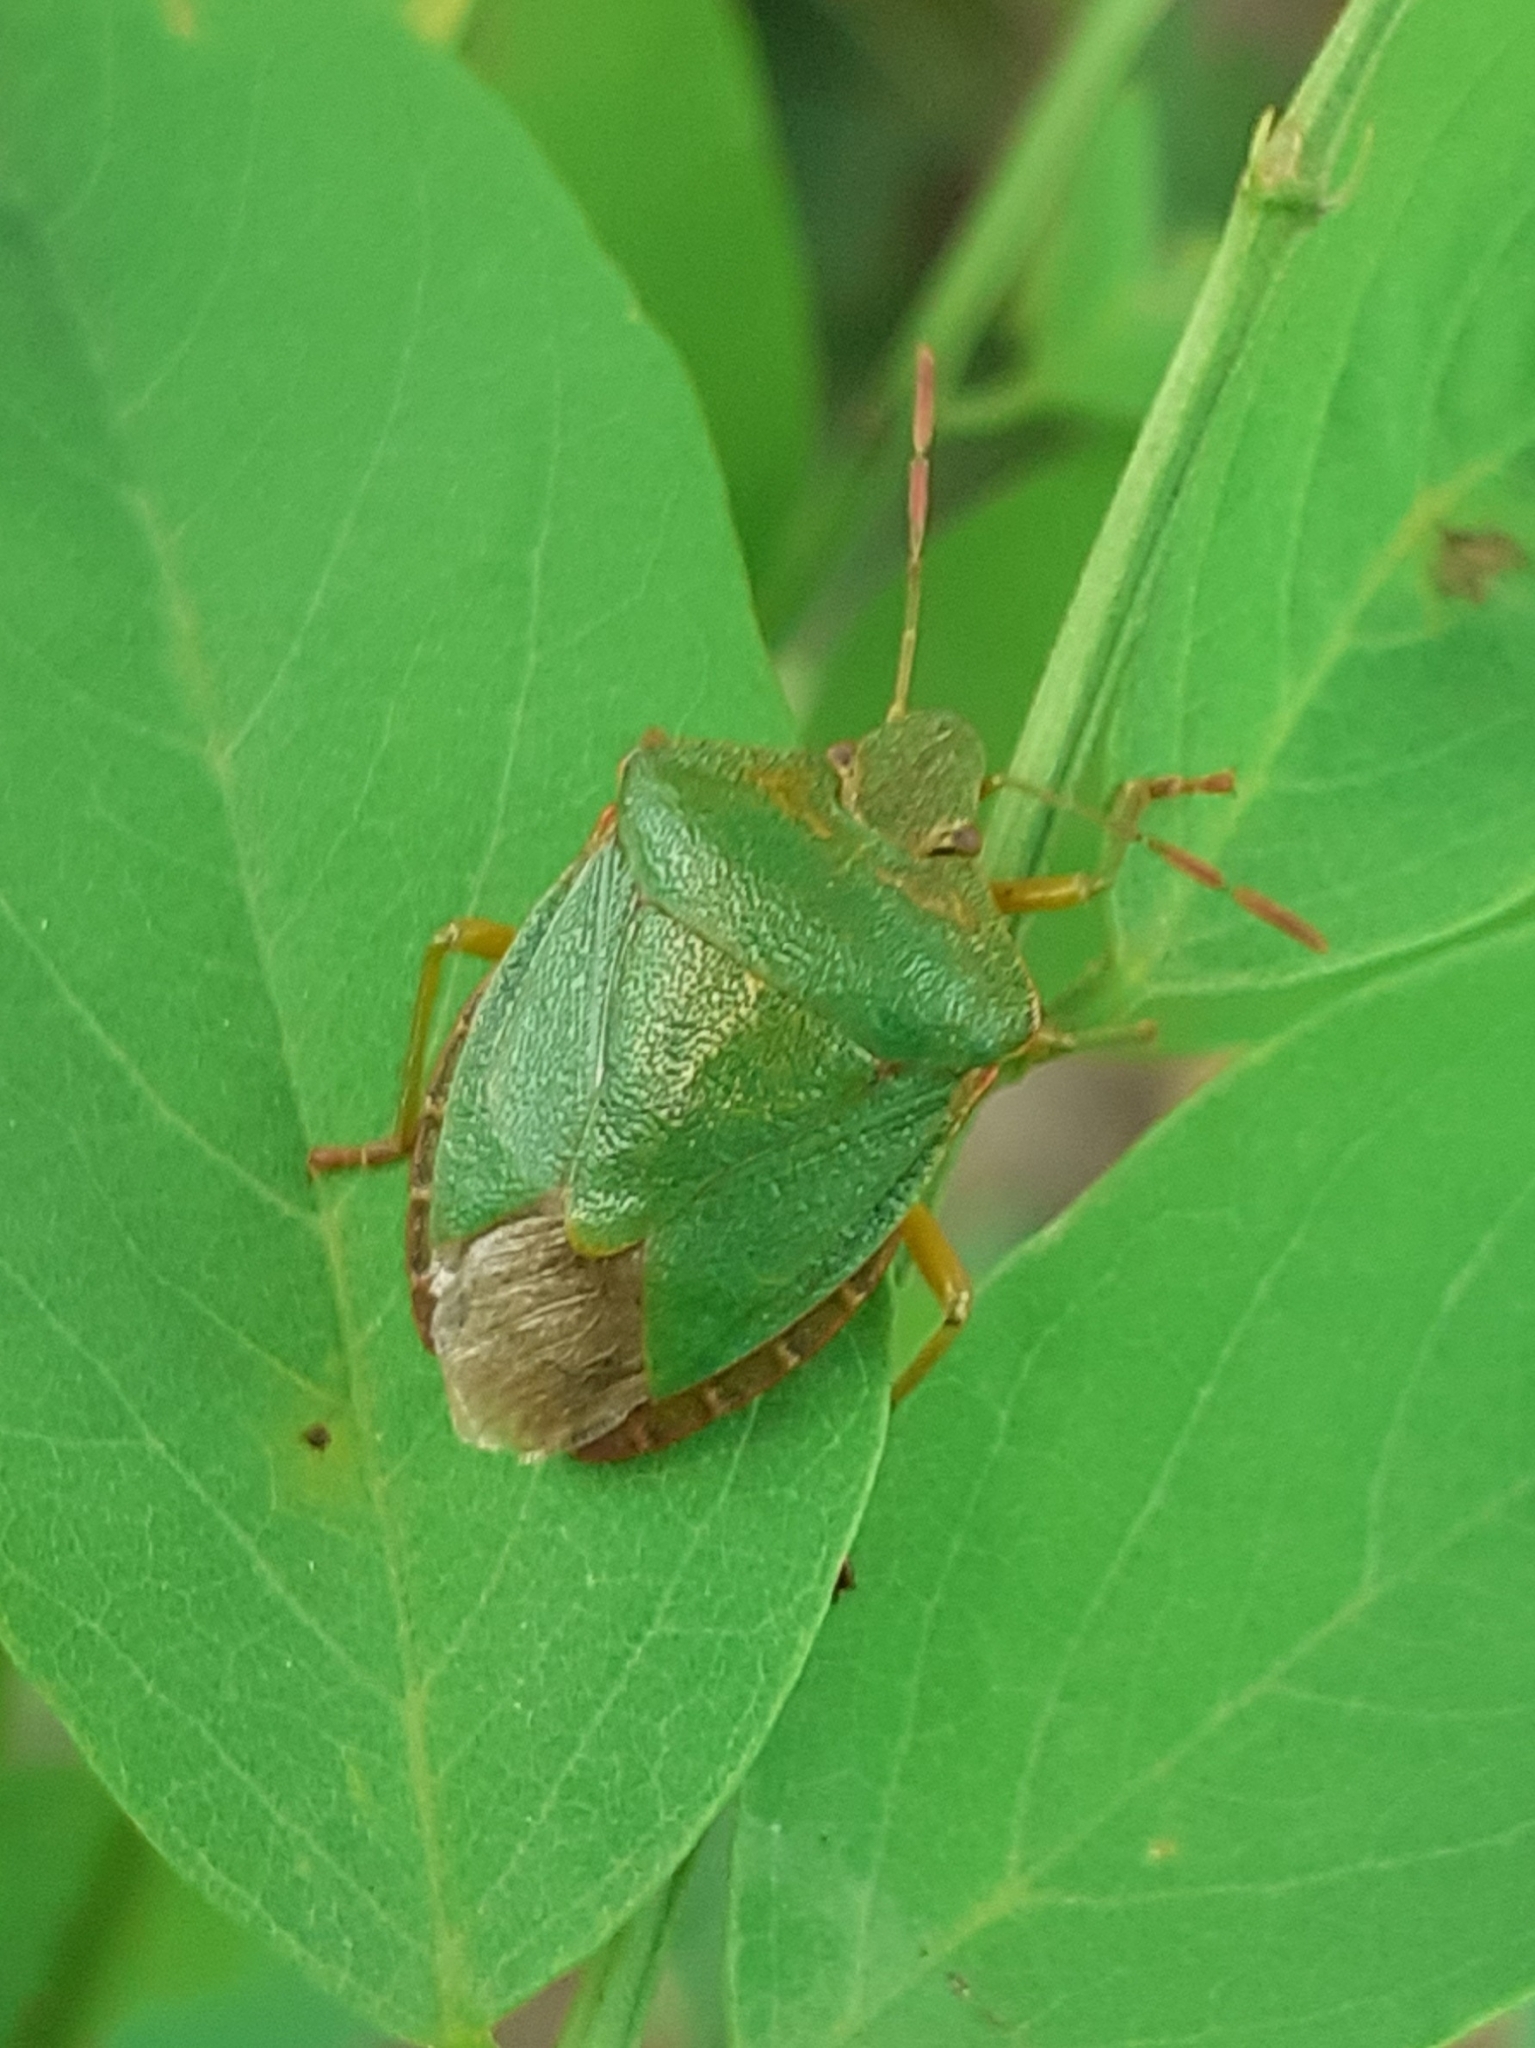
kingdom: Animalia
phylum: Arthropoda
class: Insecta
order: Hemiptera
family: Pentatomidae
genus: Palomena
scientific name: Palomena prasina
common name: Green shieldbug
